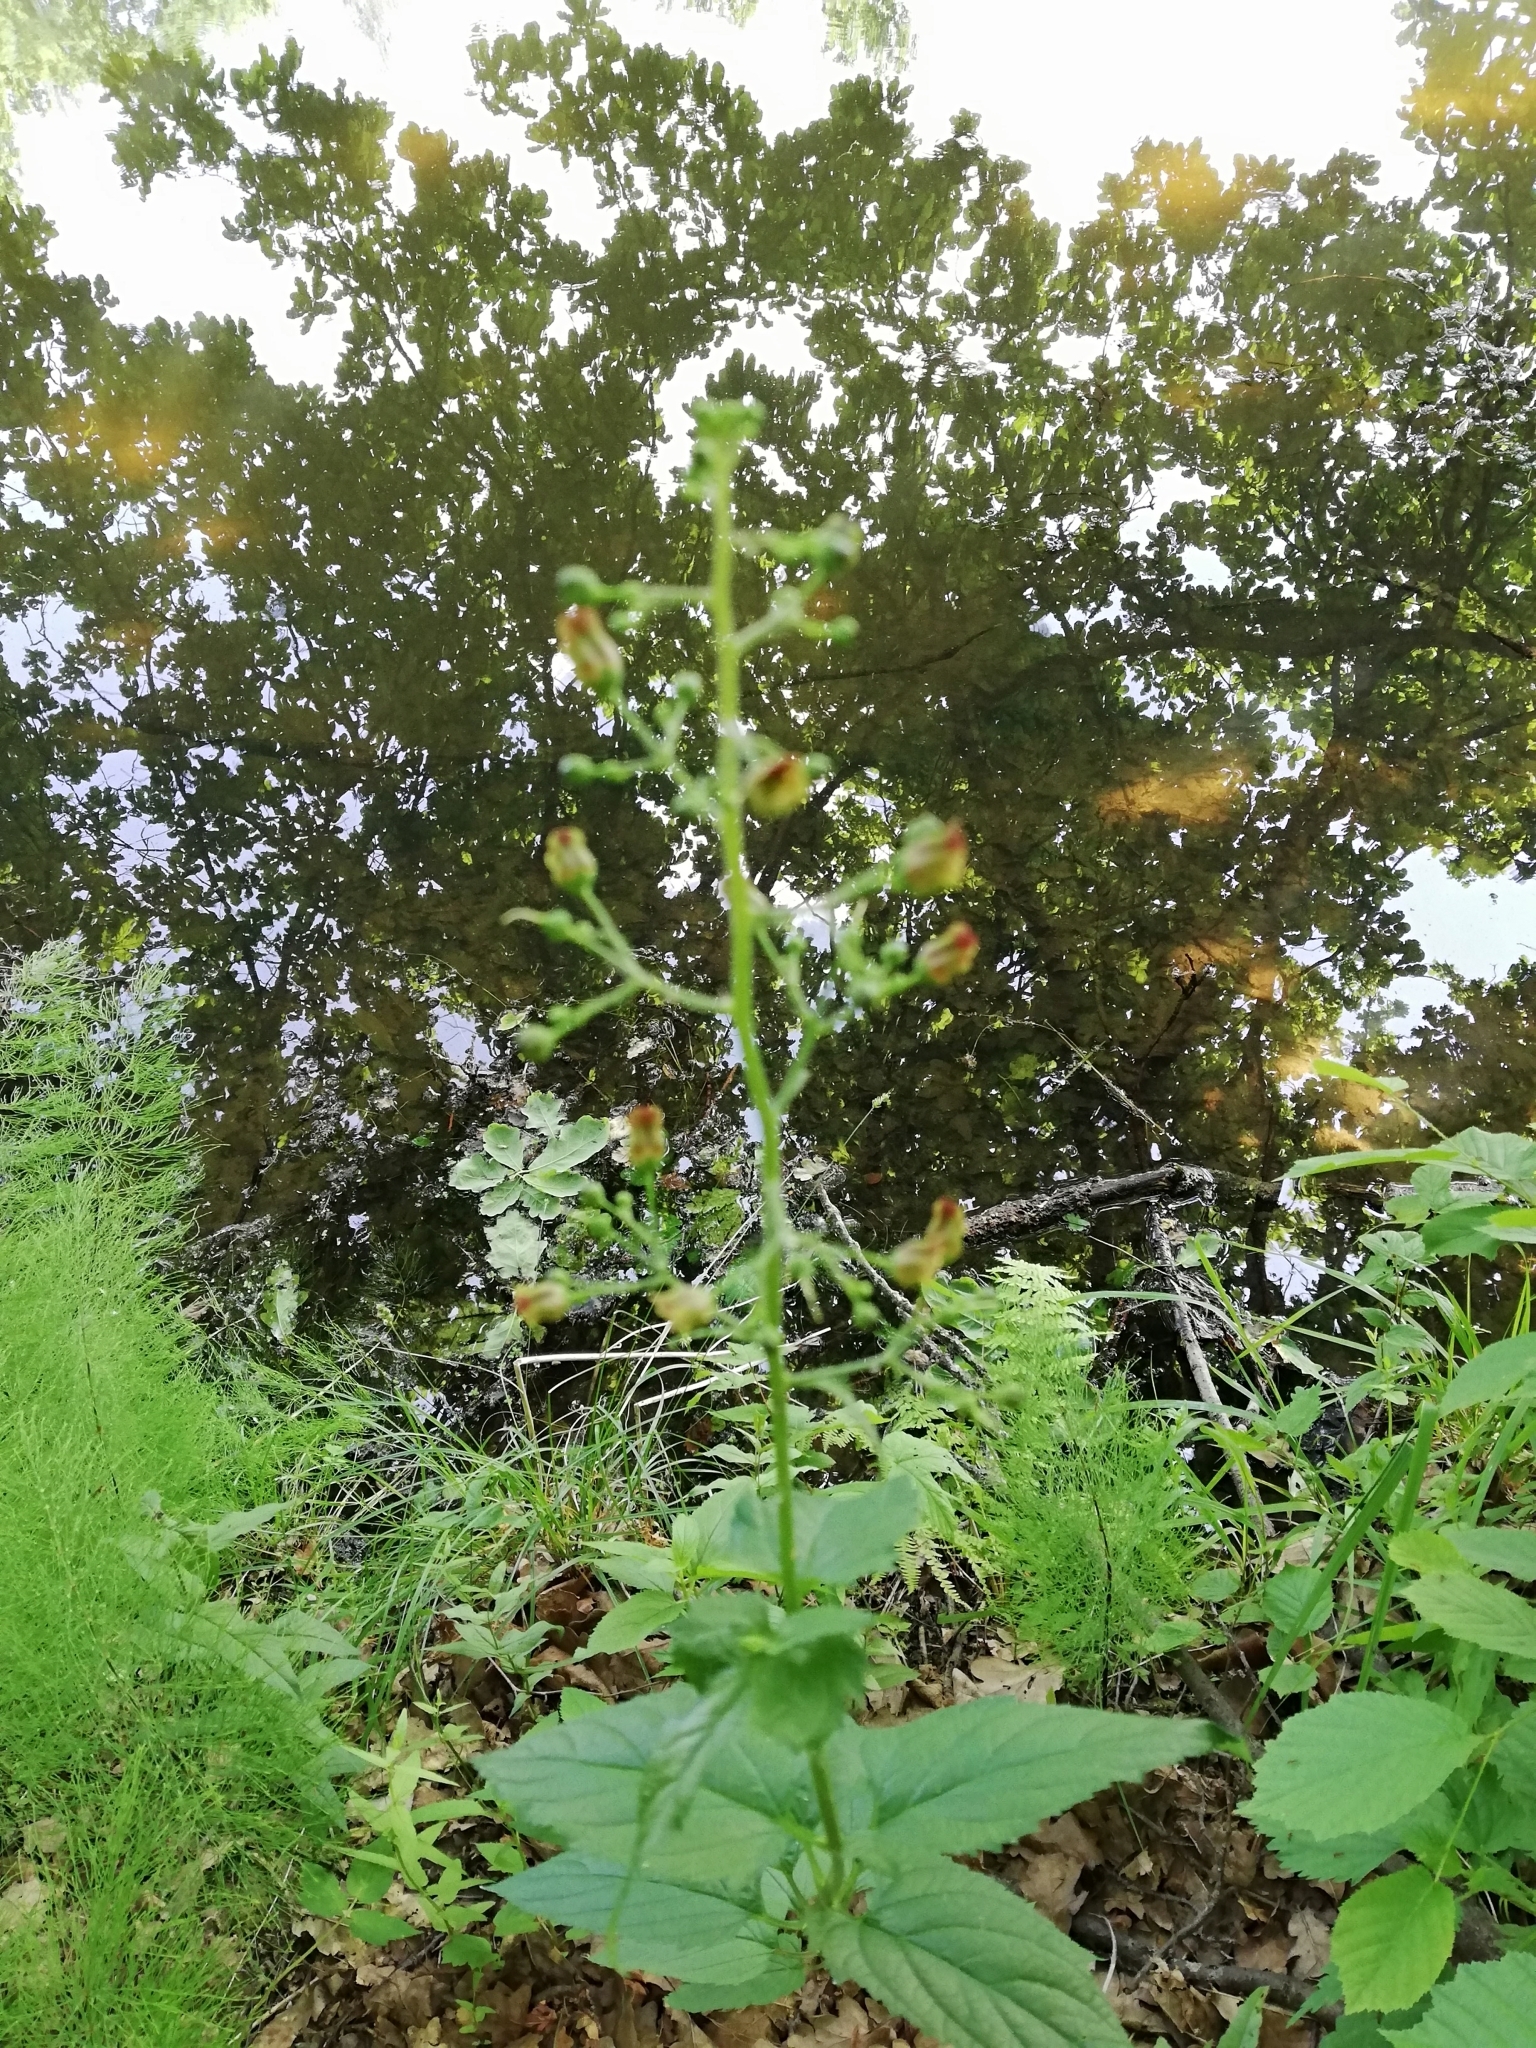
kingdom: Plantae
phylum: Tracheophyta
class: Magnoliopsida
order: Lamiales
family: Scrophulariaceae
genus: Scrophularia
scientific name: Scrophularia nodosa
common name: Common figwort
